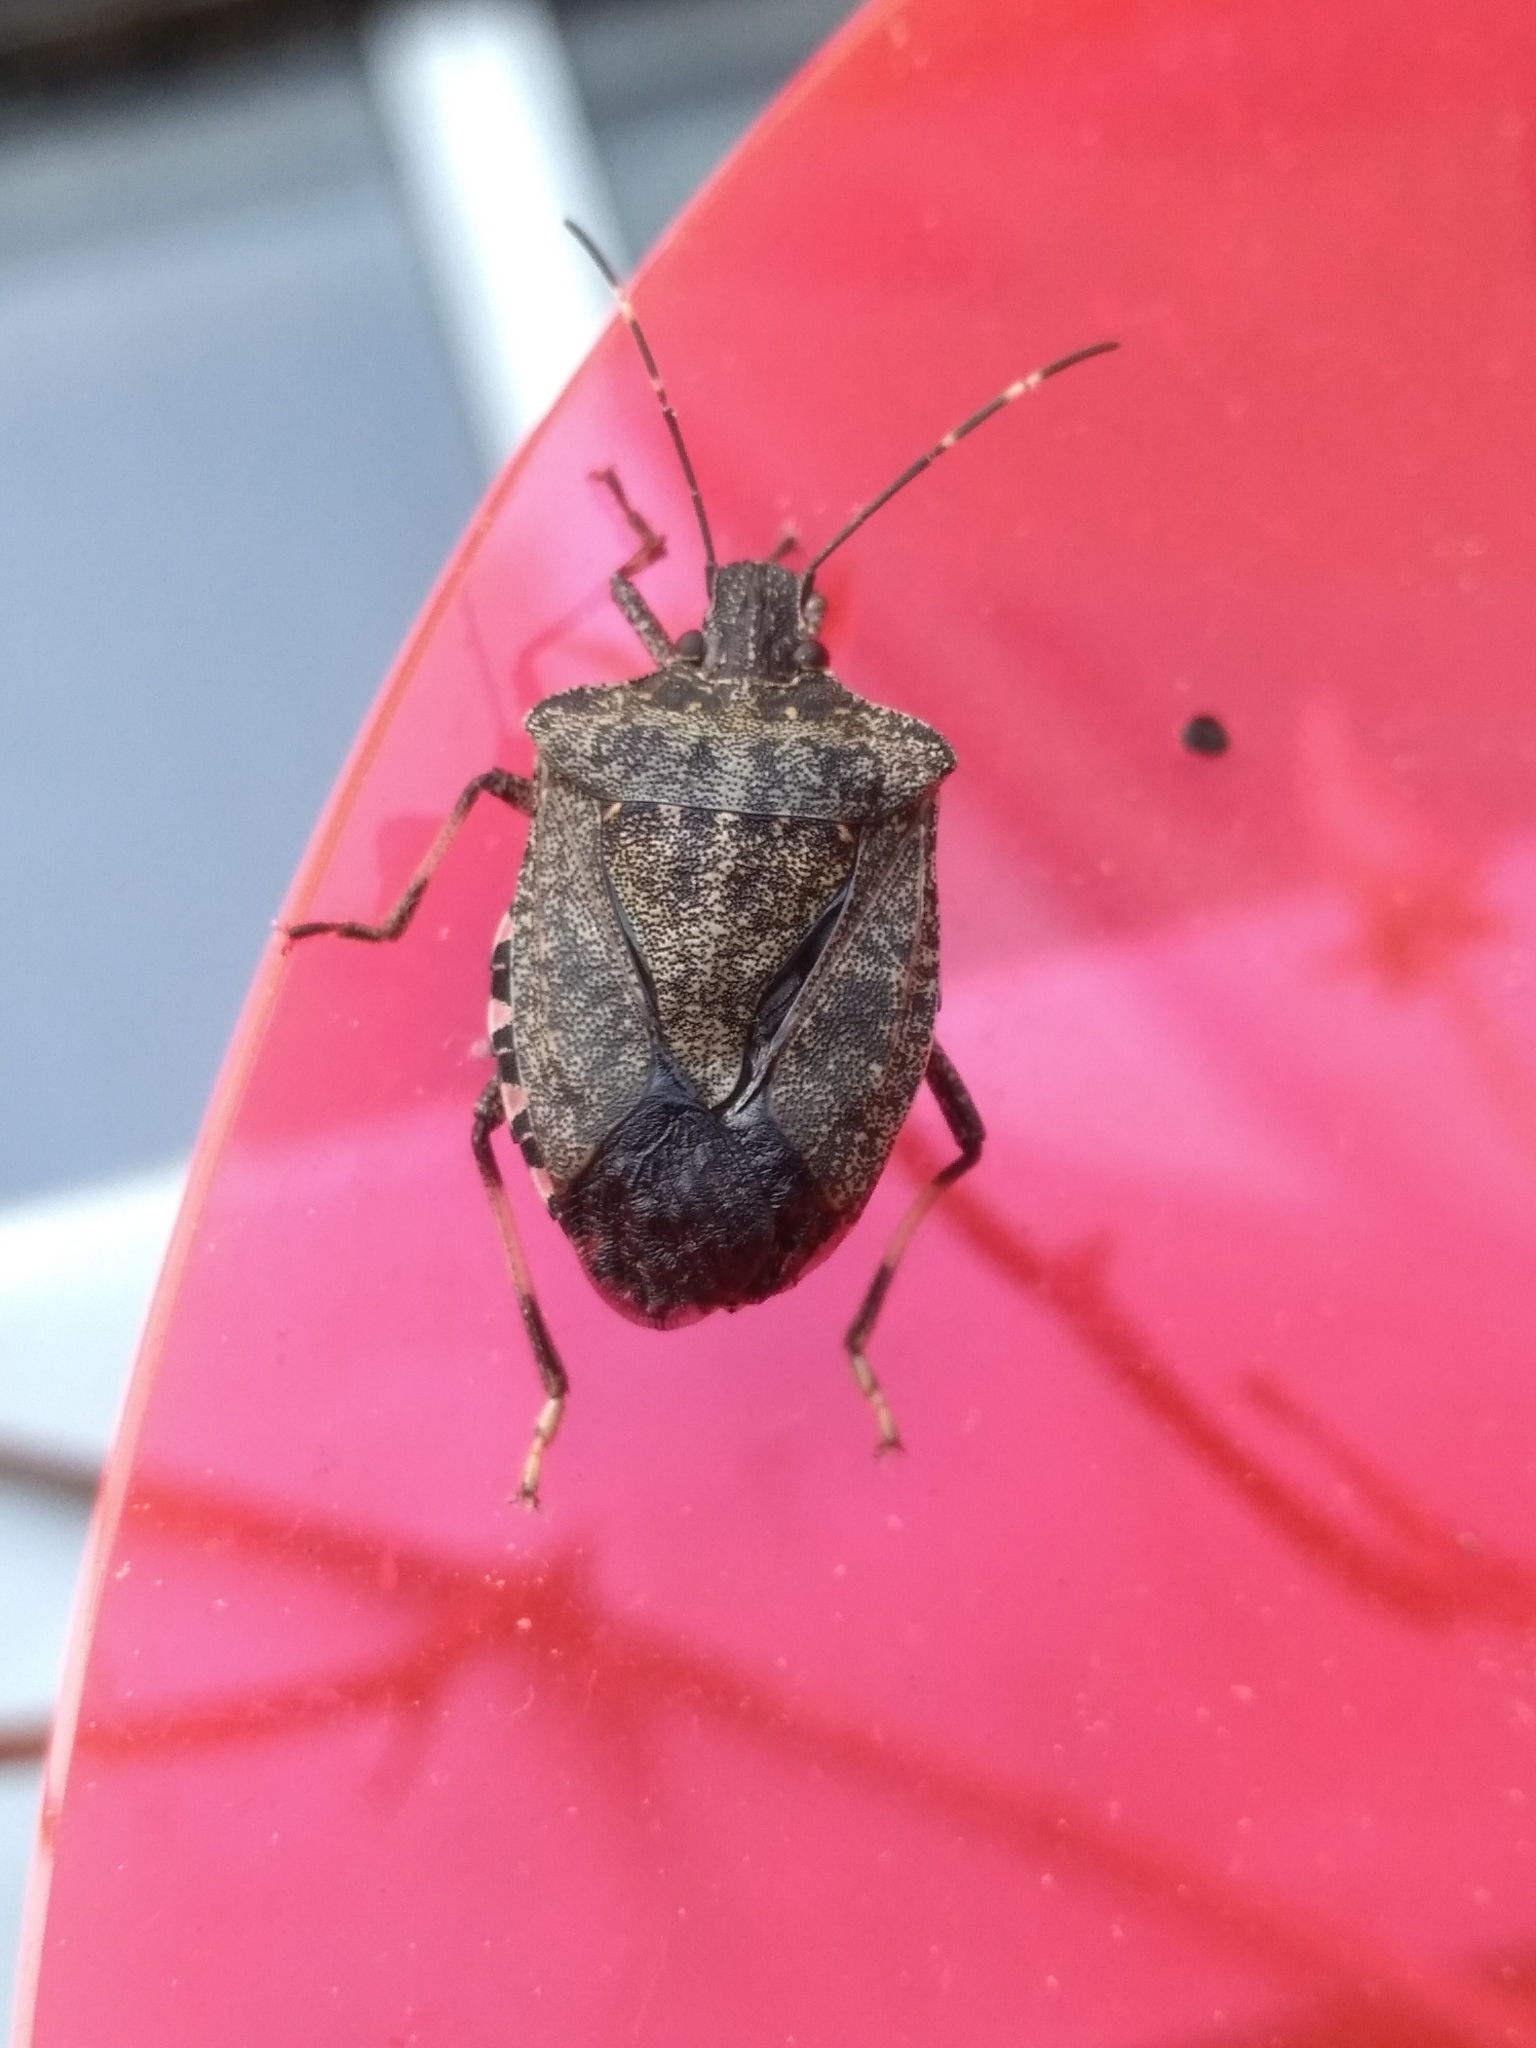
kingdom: Animalia
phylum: Arthropoda
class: Insecta
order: Hemiptera
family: Pentatomidae
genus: Halyomorpha
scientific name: Halyomorpha halys
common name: Brown marmorated stink bug
